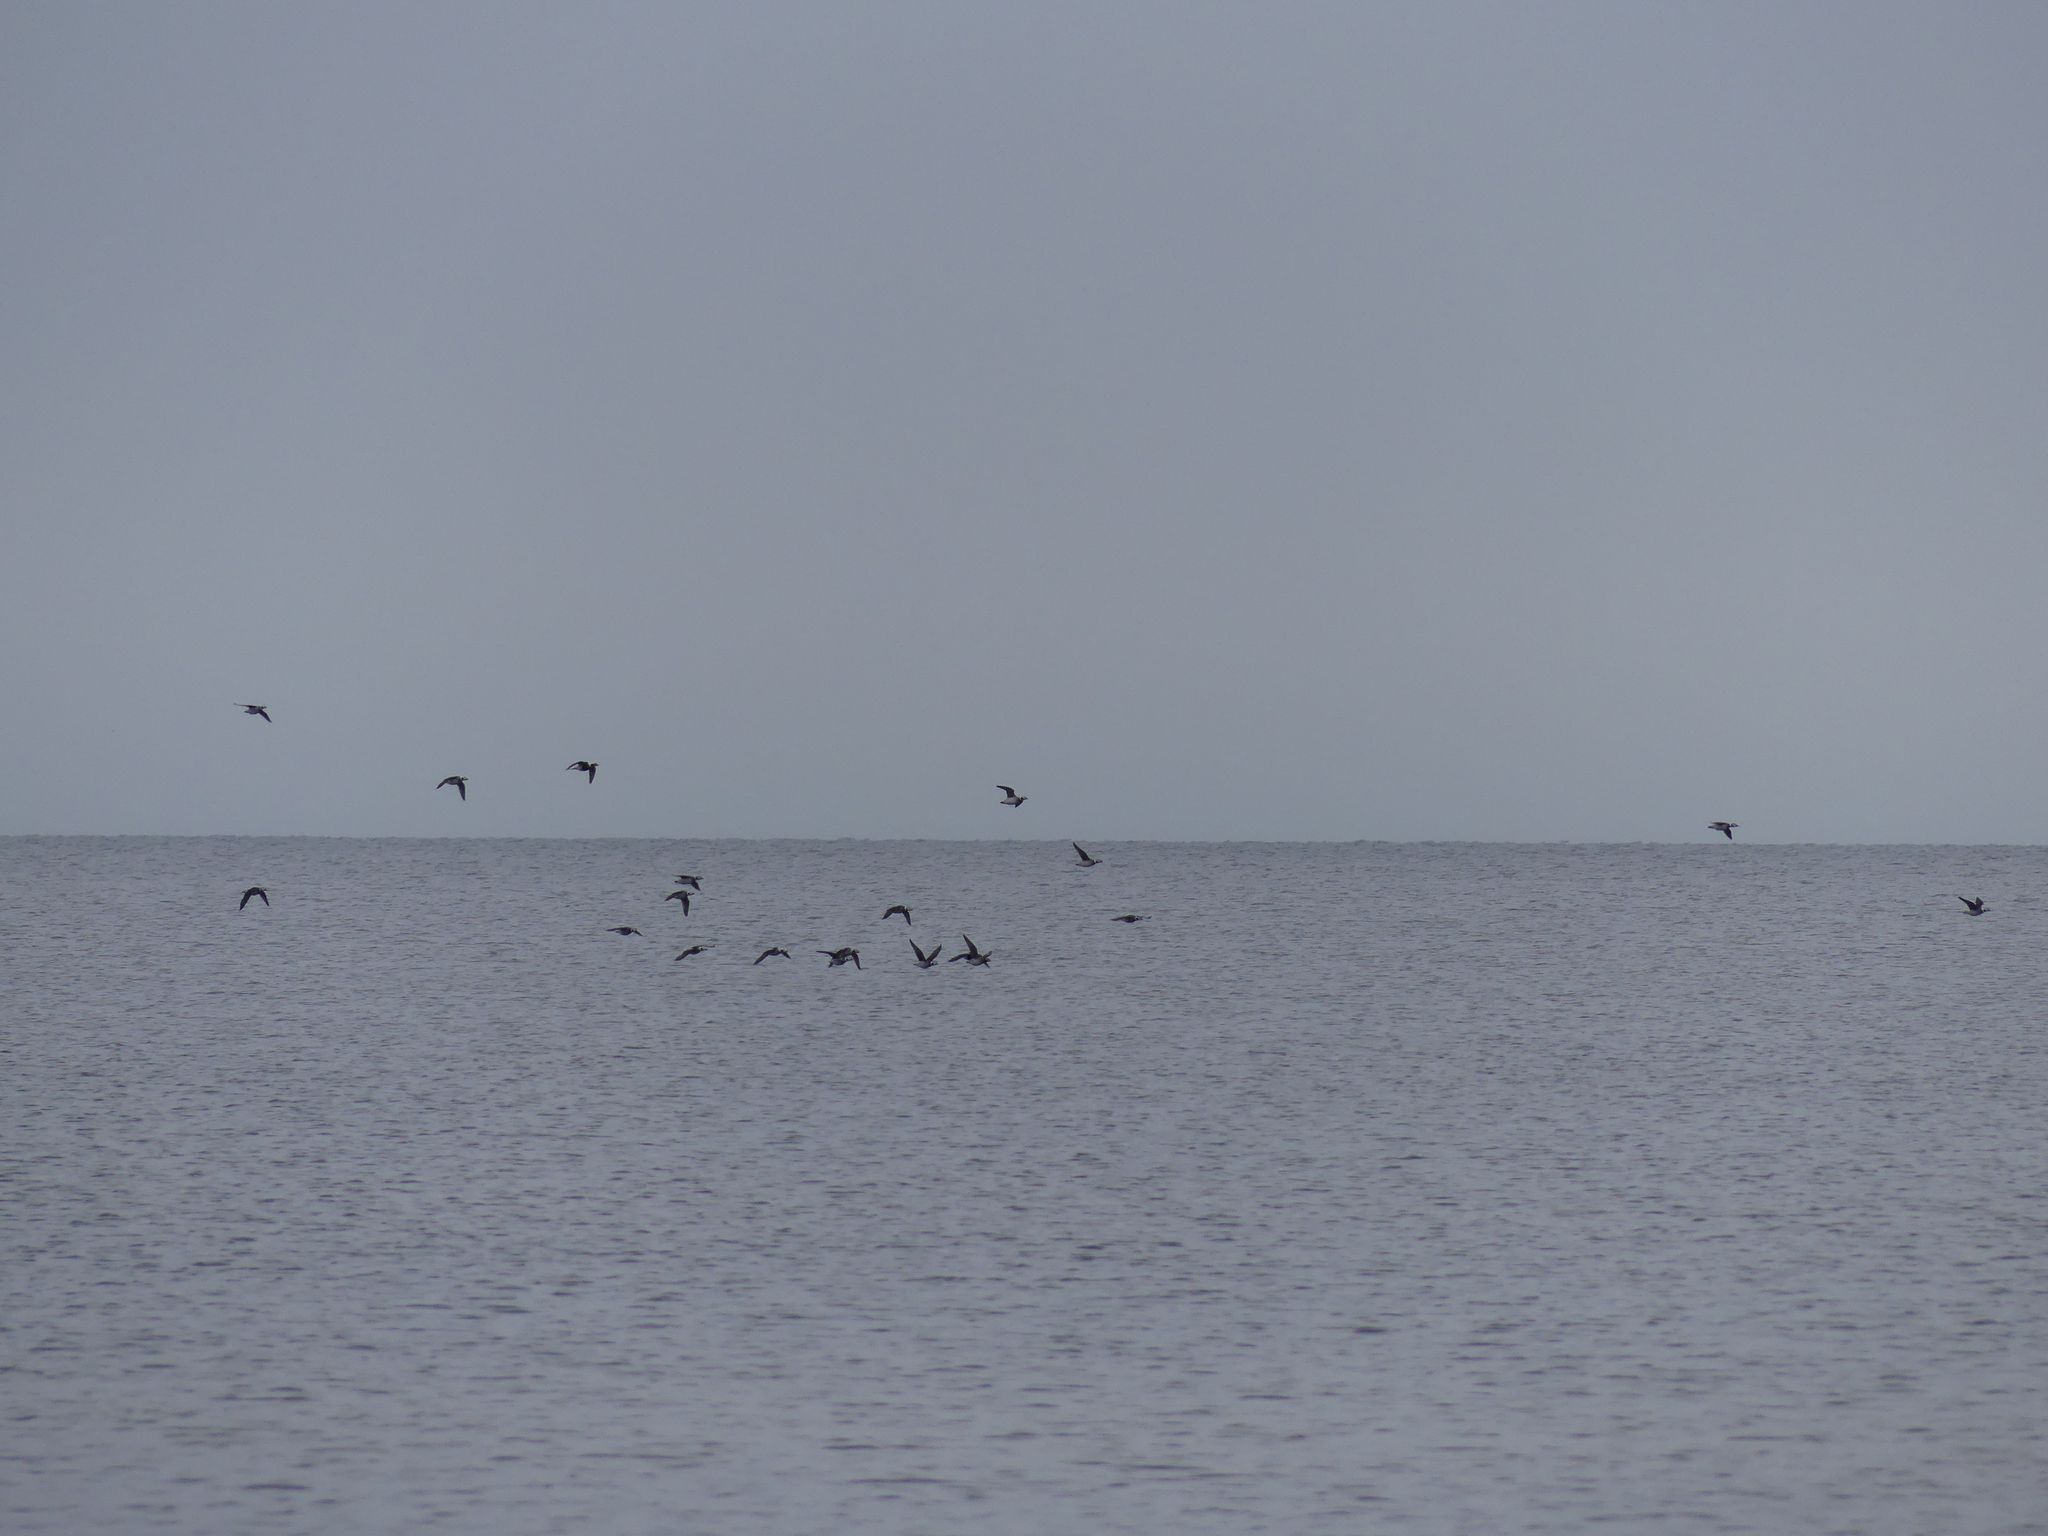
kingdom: Animalia
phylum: Chordata
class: Aves
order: Anseriformes
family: Anatidae
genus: Clangula
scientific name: Clangula hyemalis
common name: Long-tailed duck
